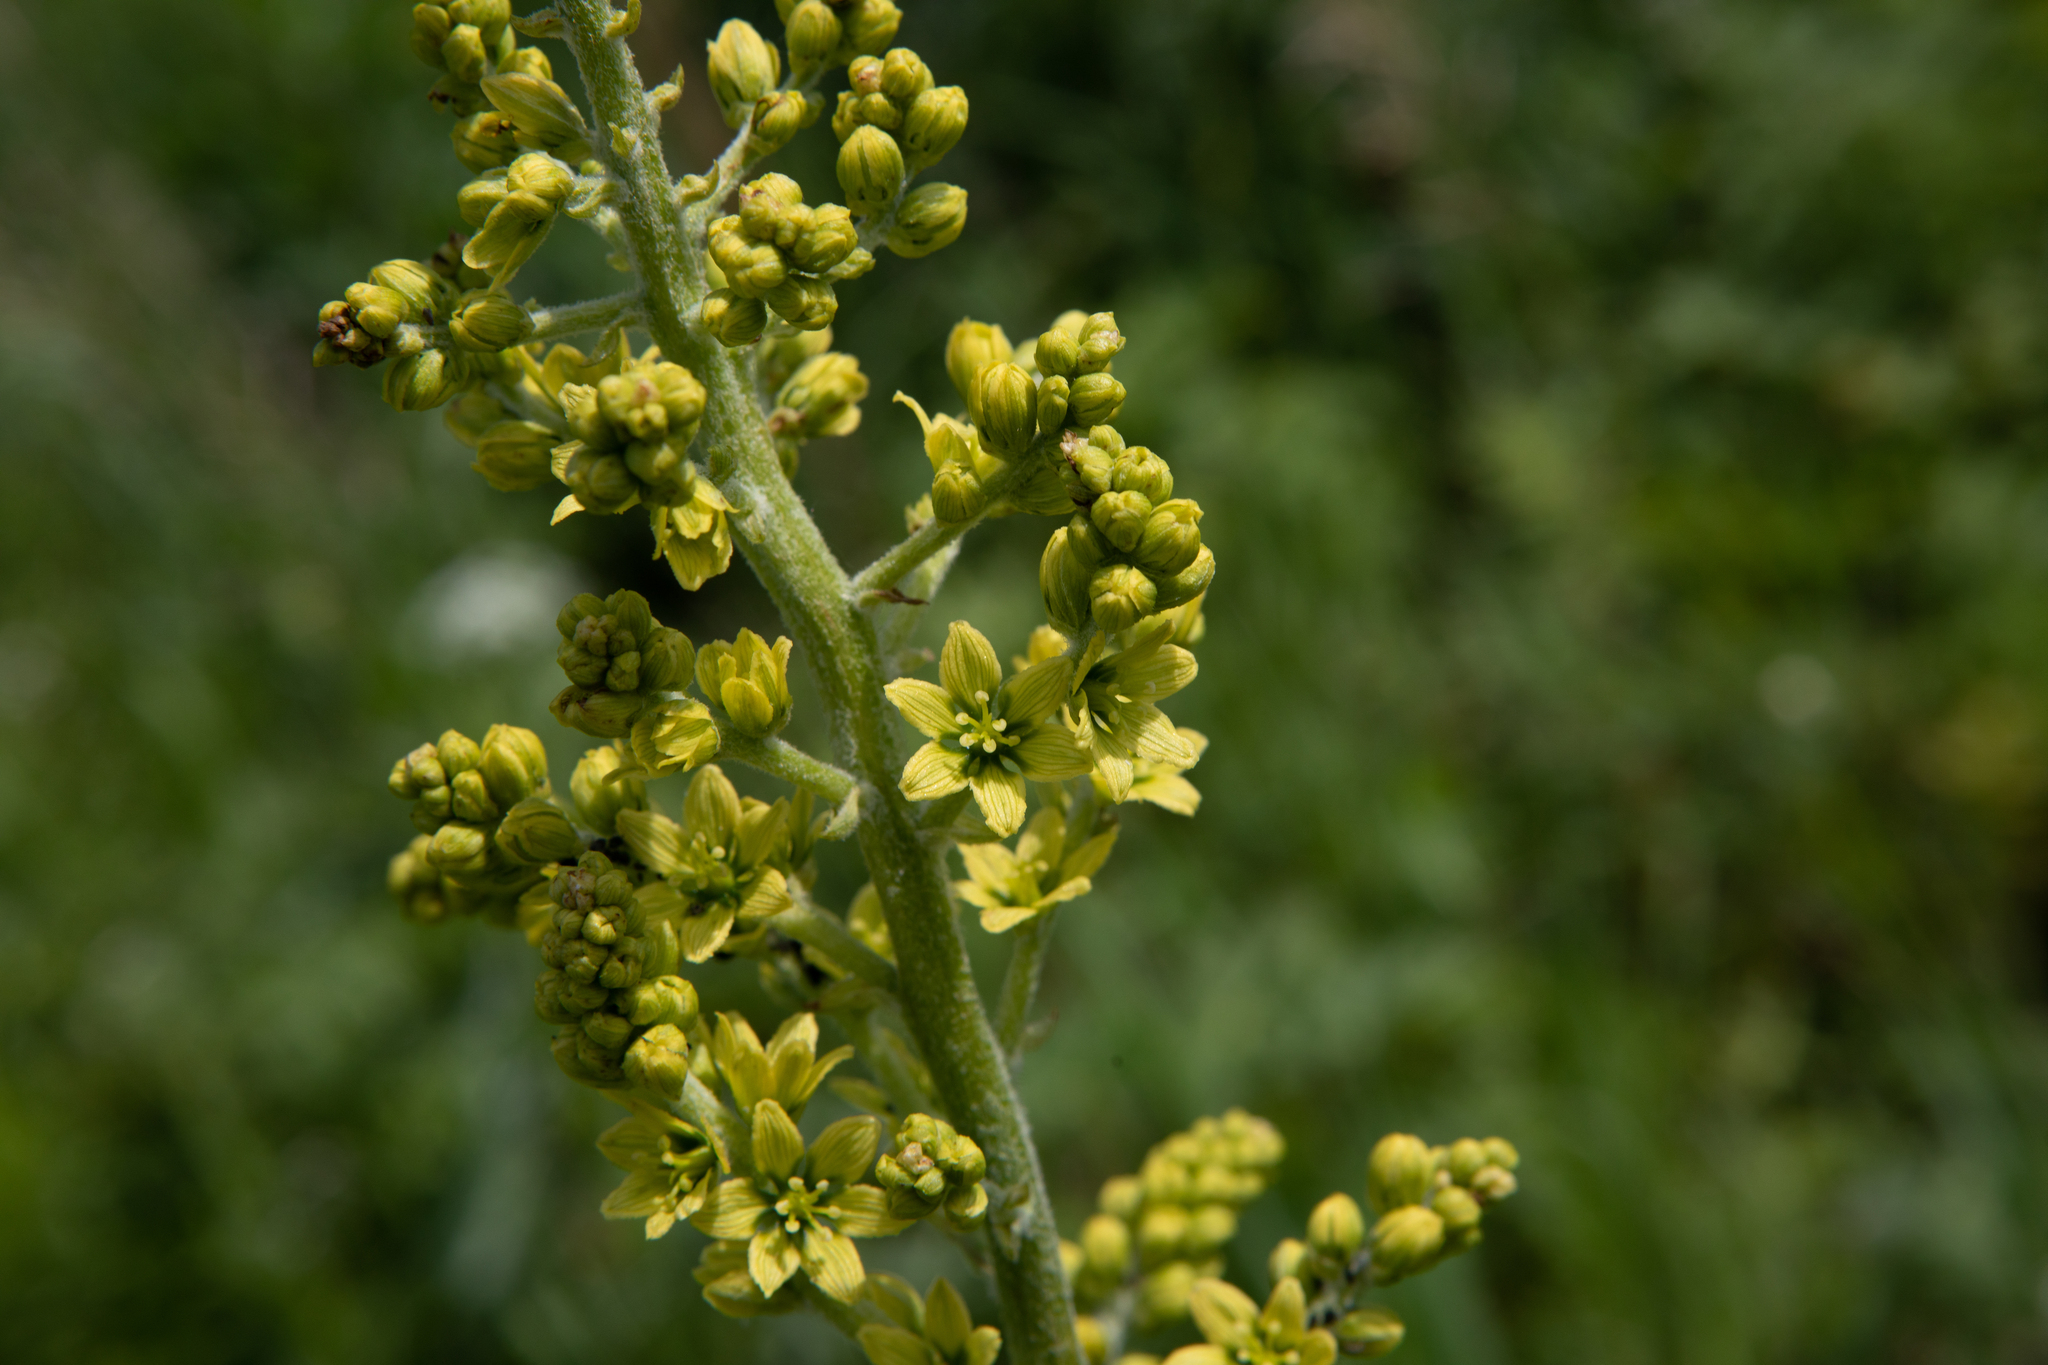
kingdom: Plantae
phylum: Tracheophyta
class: Liliopsida
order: Liliales
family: Melanthiaceae
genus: Veratrum
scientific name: Veratrum lobelianum
